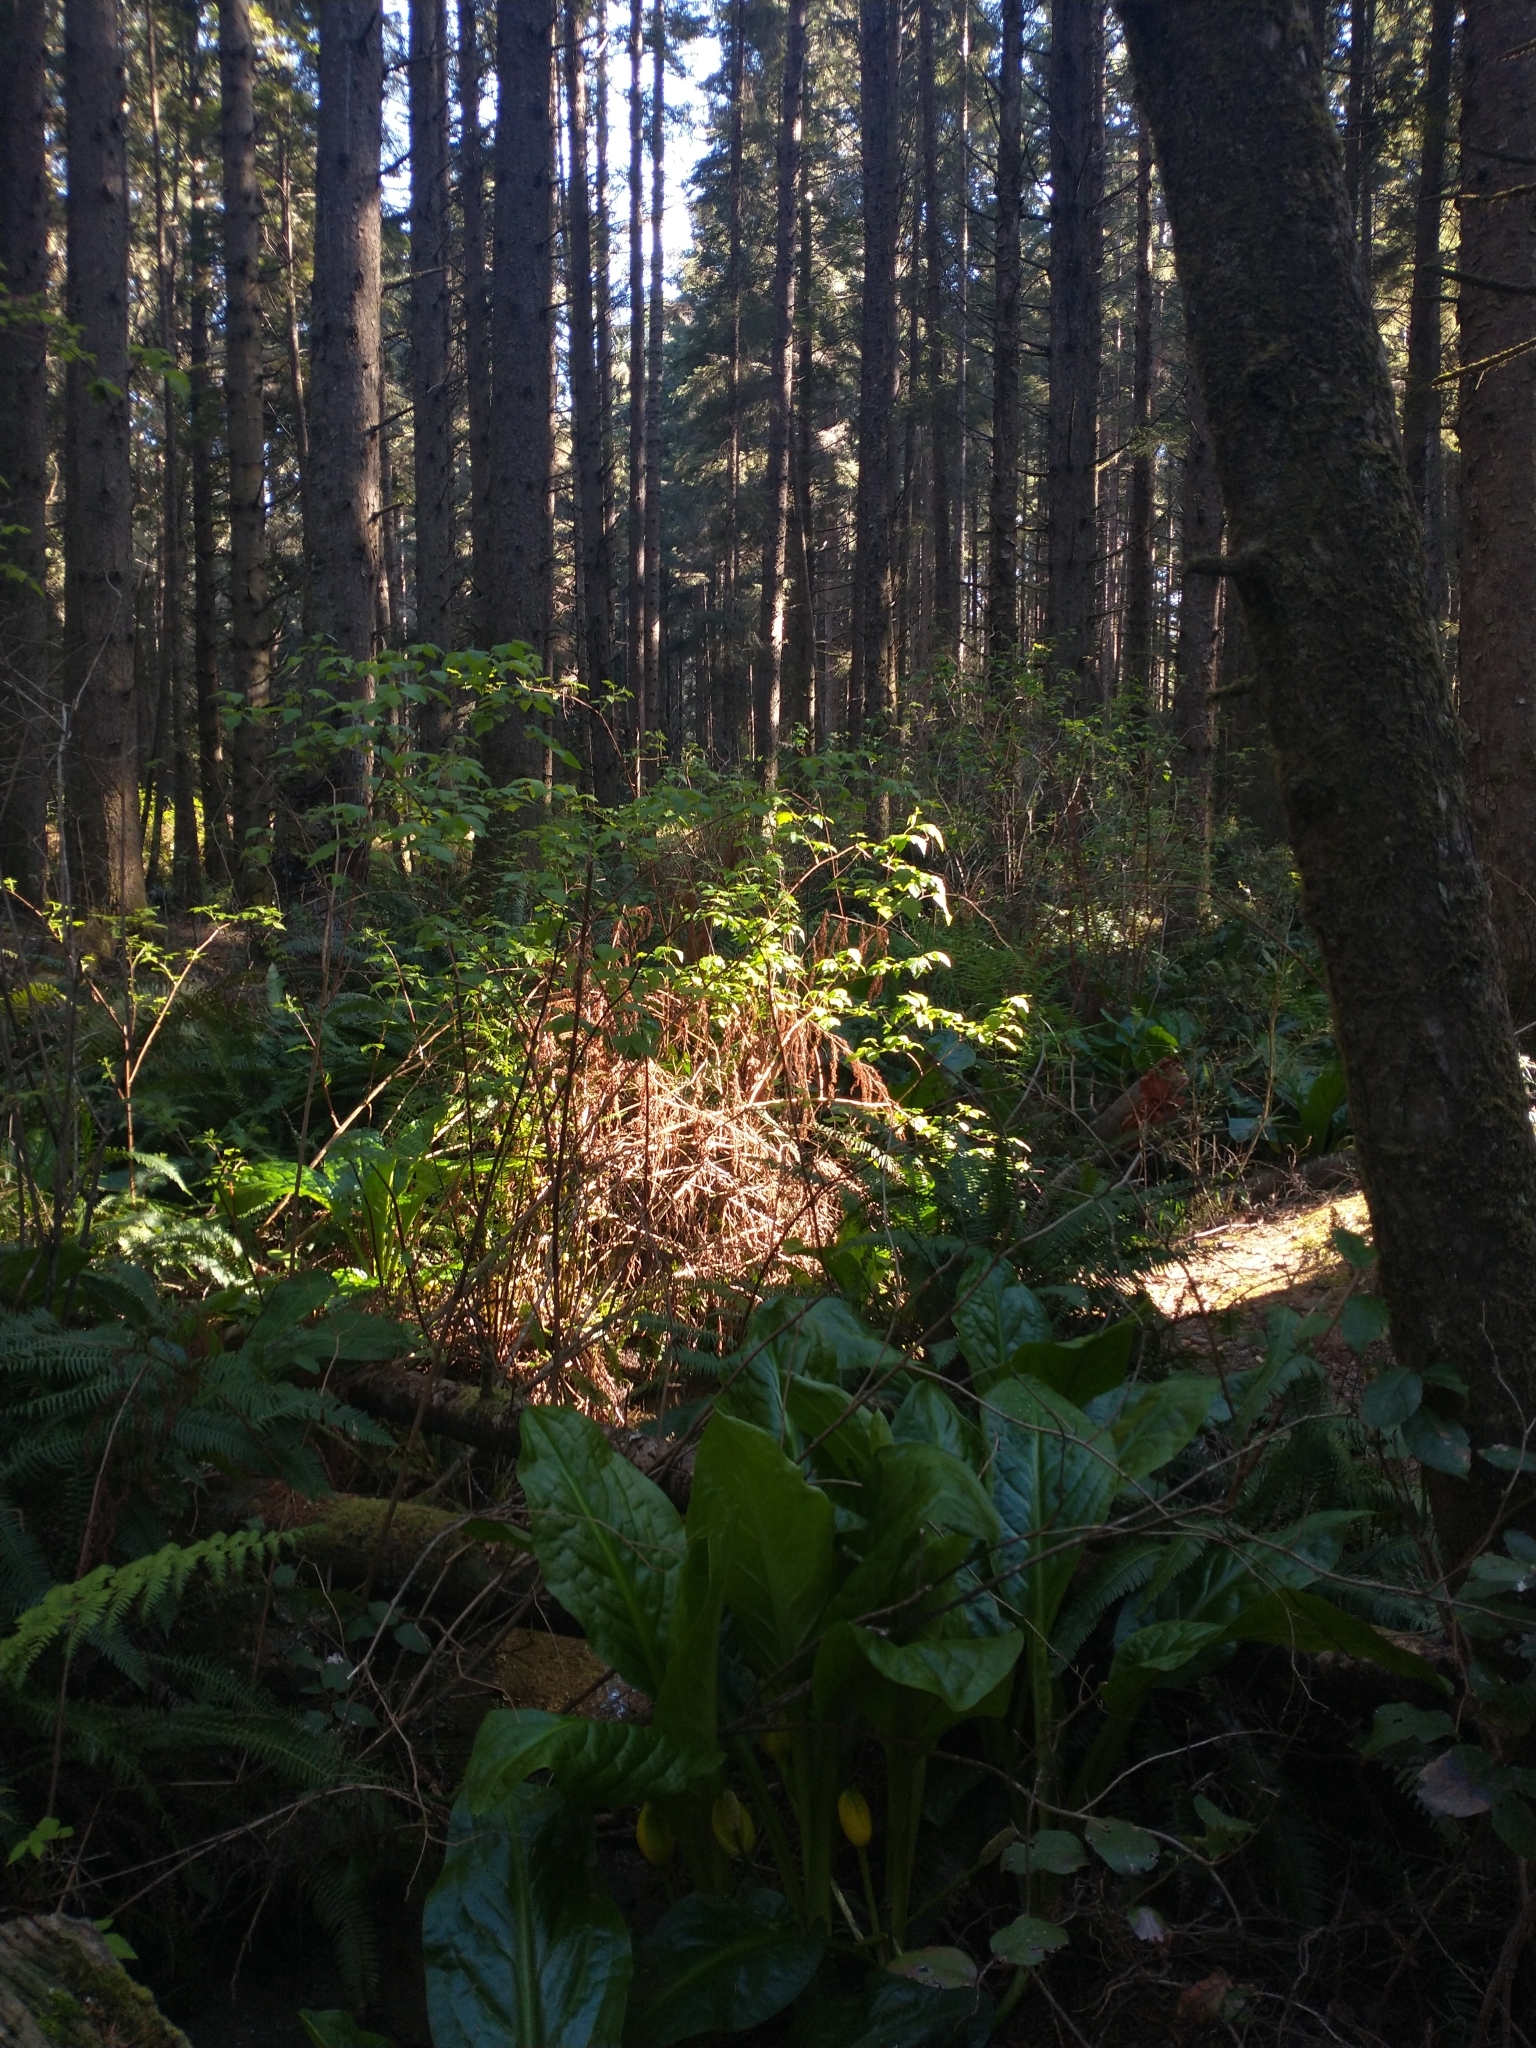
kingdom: Plantae
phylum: Tracheophyta
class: Magnoliopsida
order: Rosales
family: Rosaceae
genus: Rubus
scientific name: Rubus spectabilis
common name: Salmonberry
